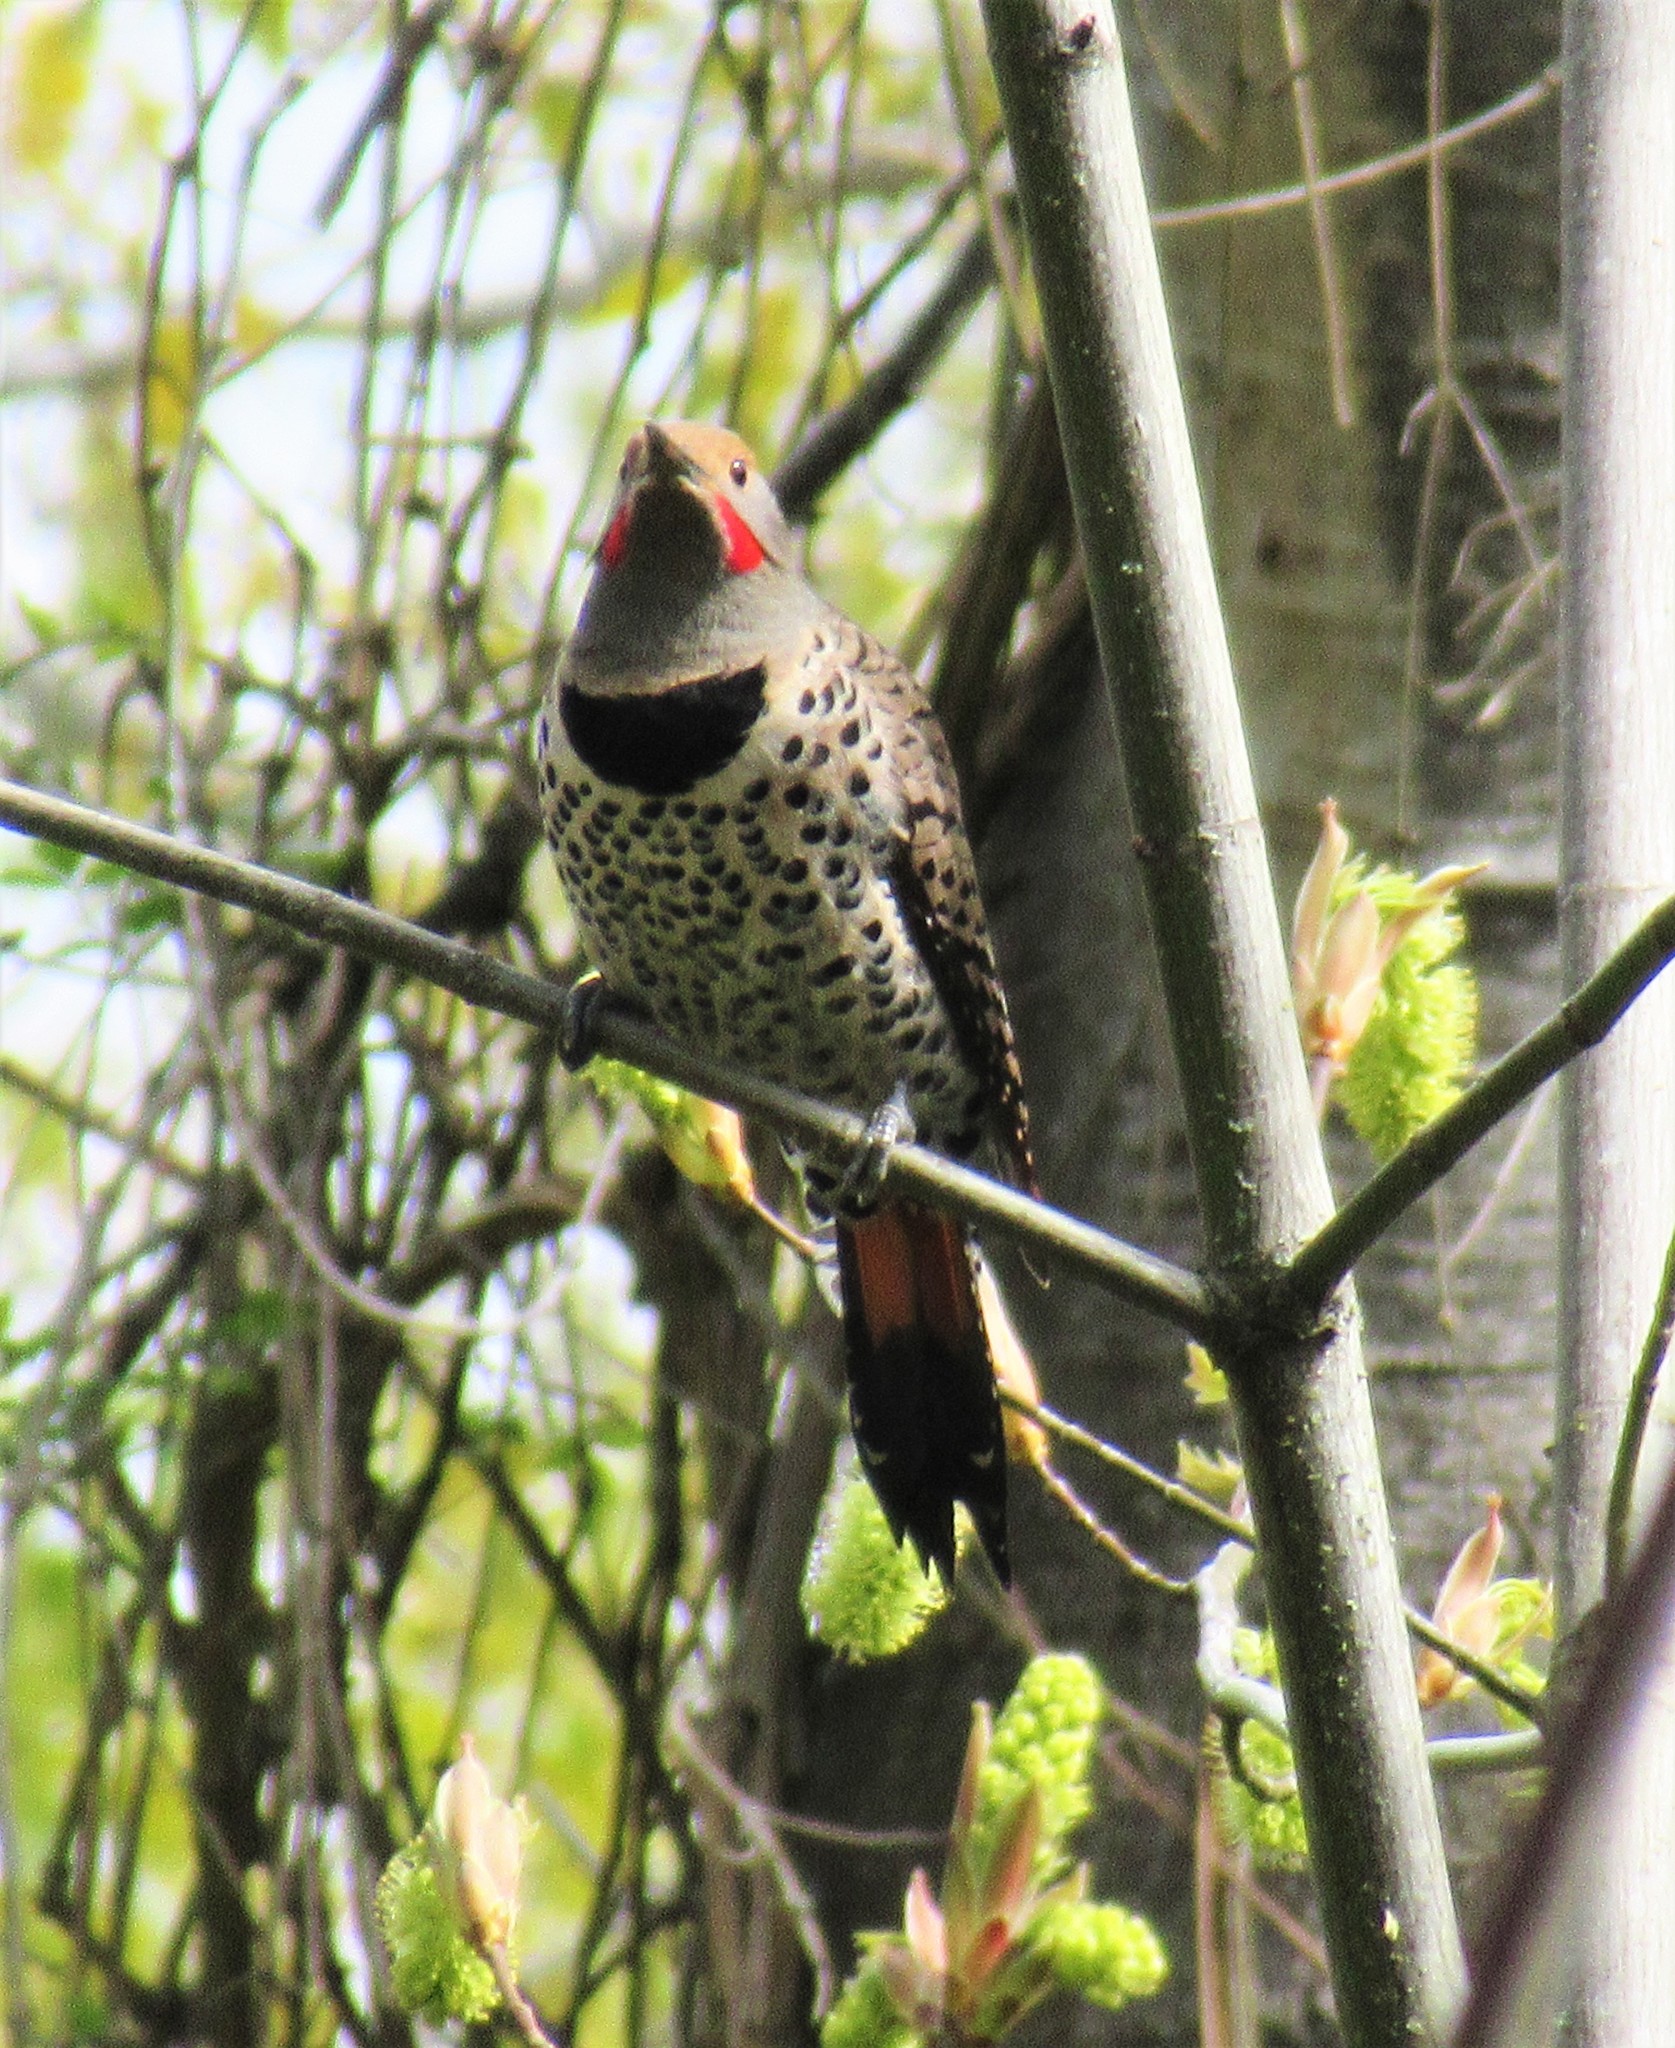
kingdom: Animalia
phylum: Chordata
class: Aves
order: Piciformes
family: Picidae
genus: Colaptes
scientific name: Colaptes auratus
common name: Northern flicker
